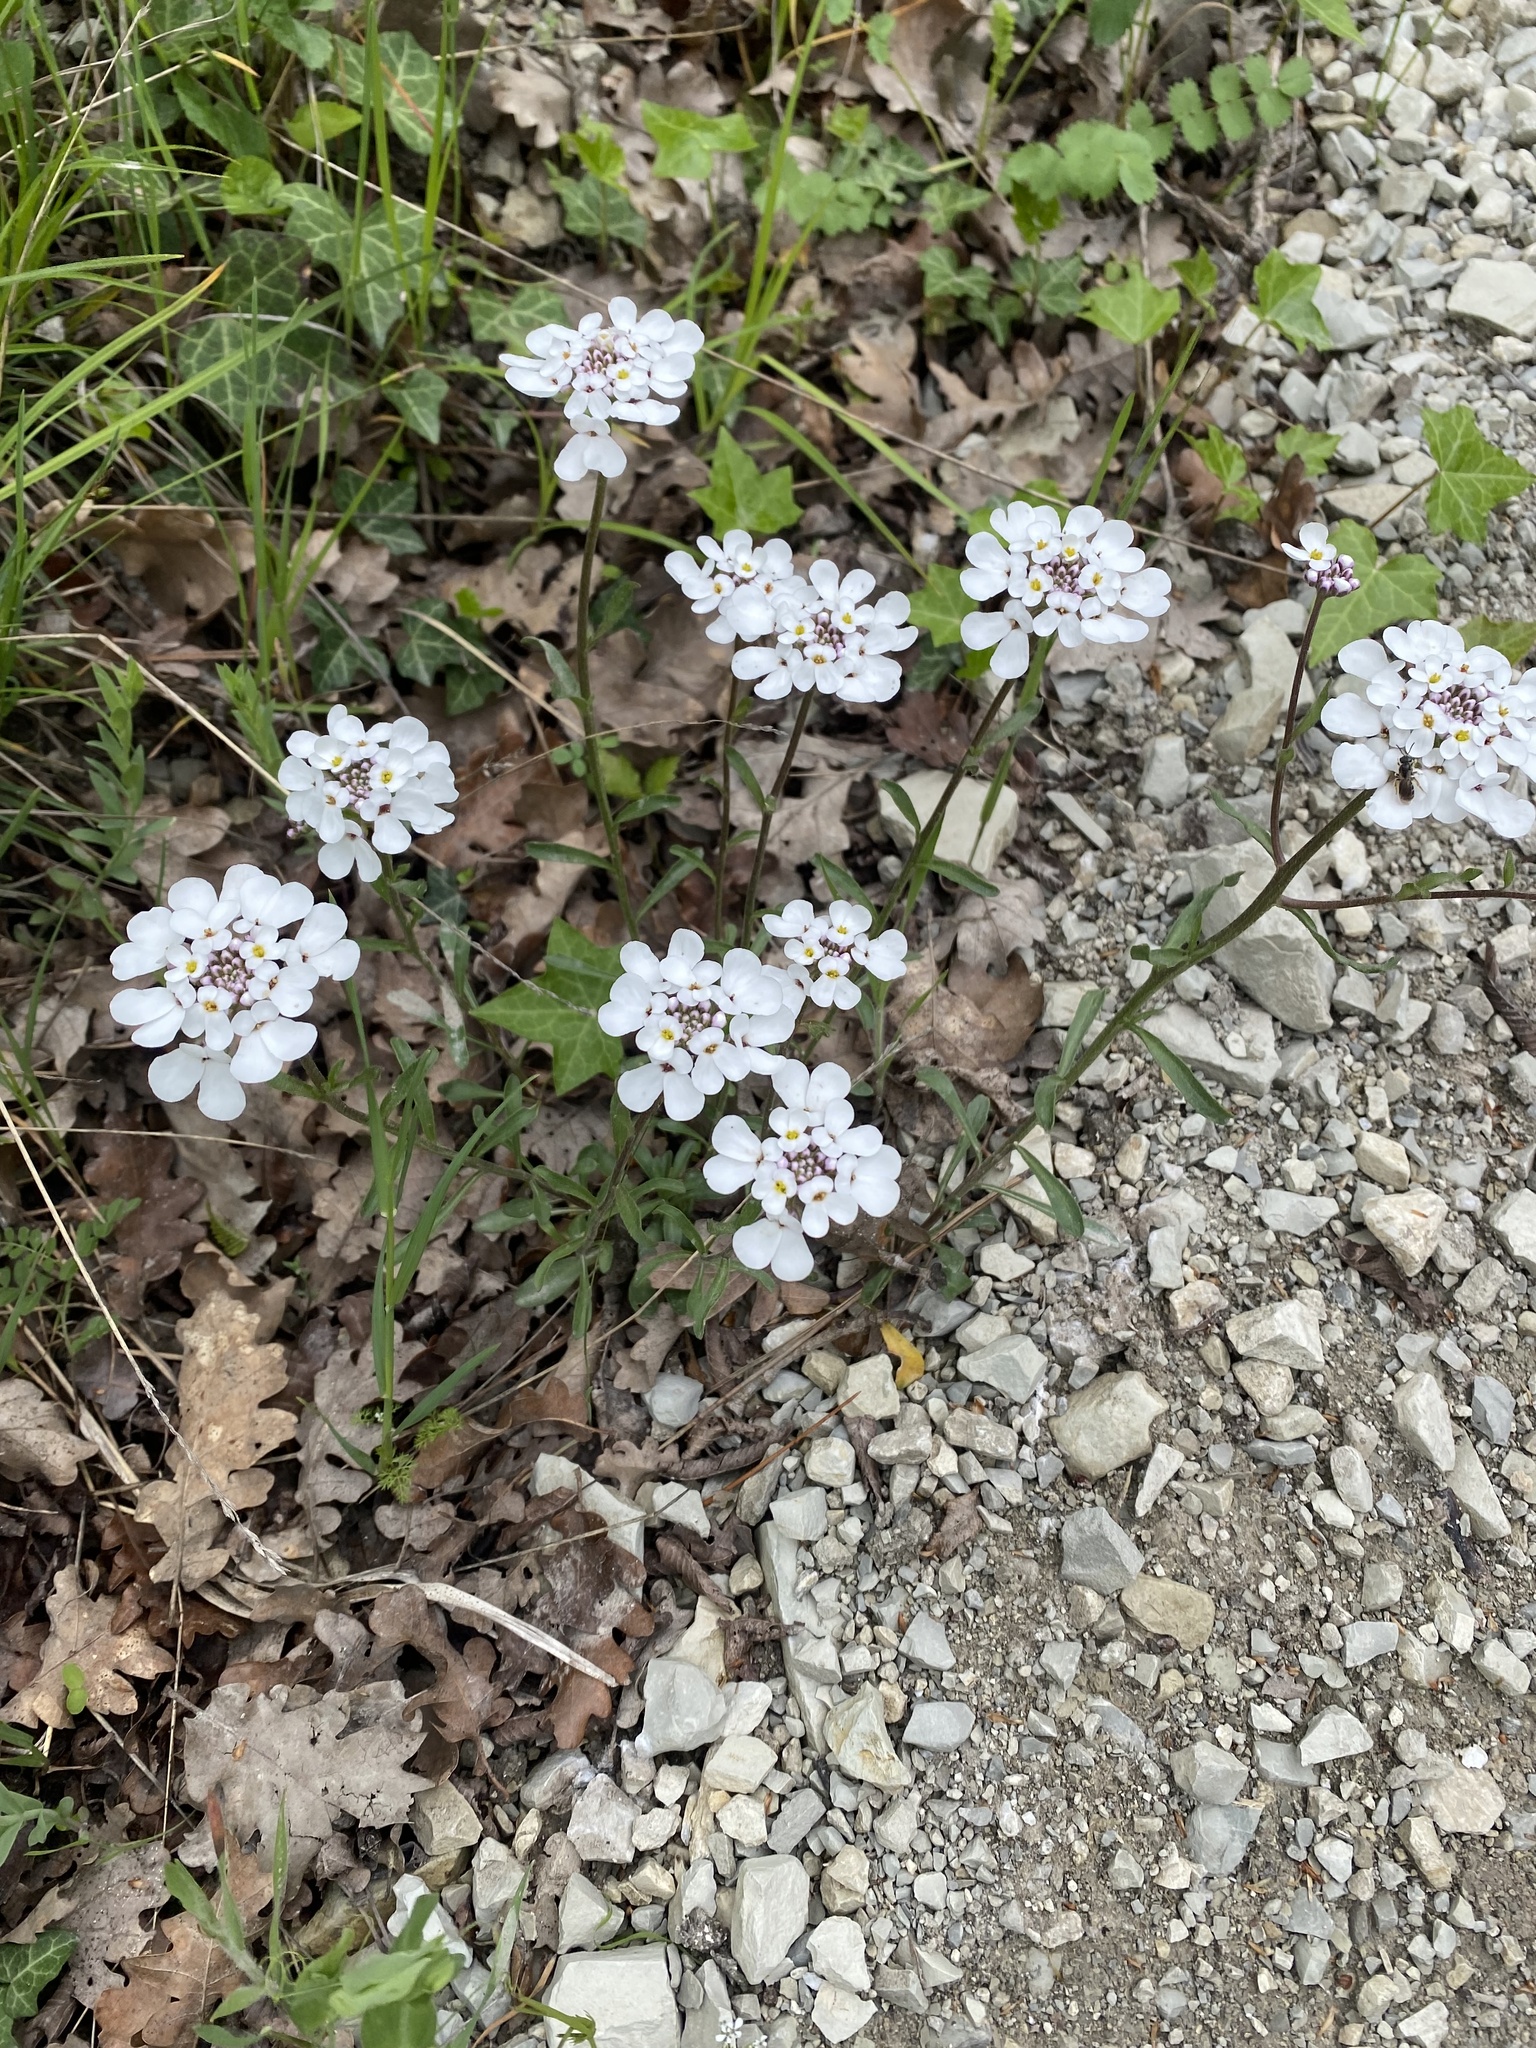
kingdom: Plantae
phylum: Tracheophyta
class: Magnoliopsida
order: Brassicales
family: Brassicaceae
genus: Iberis
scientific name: Iberis simplex
